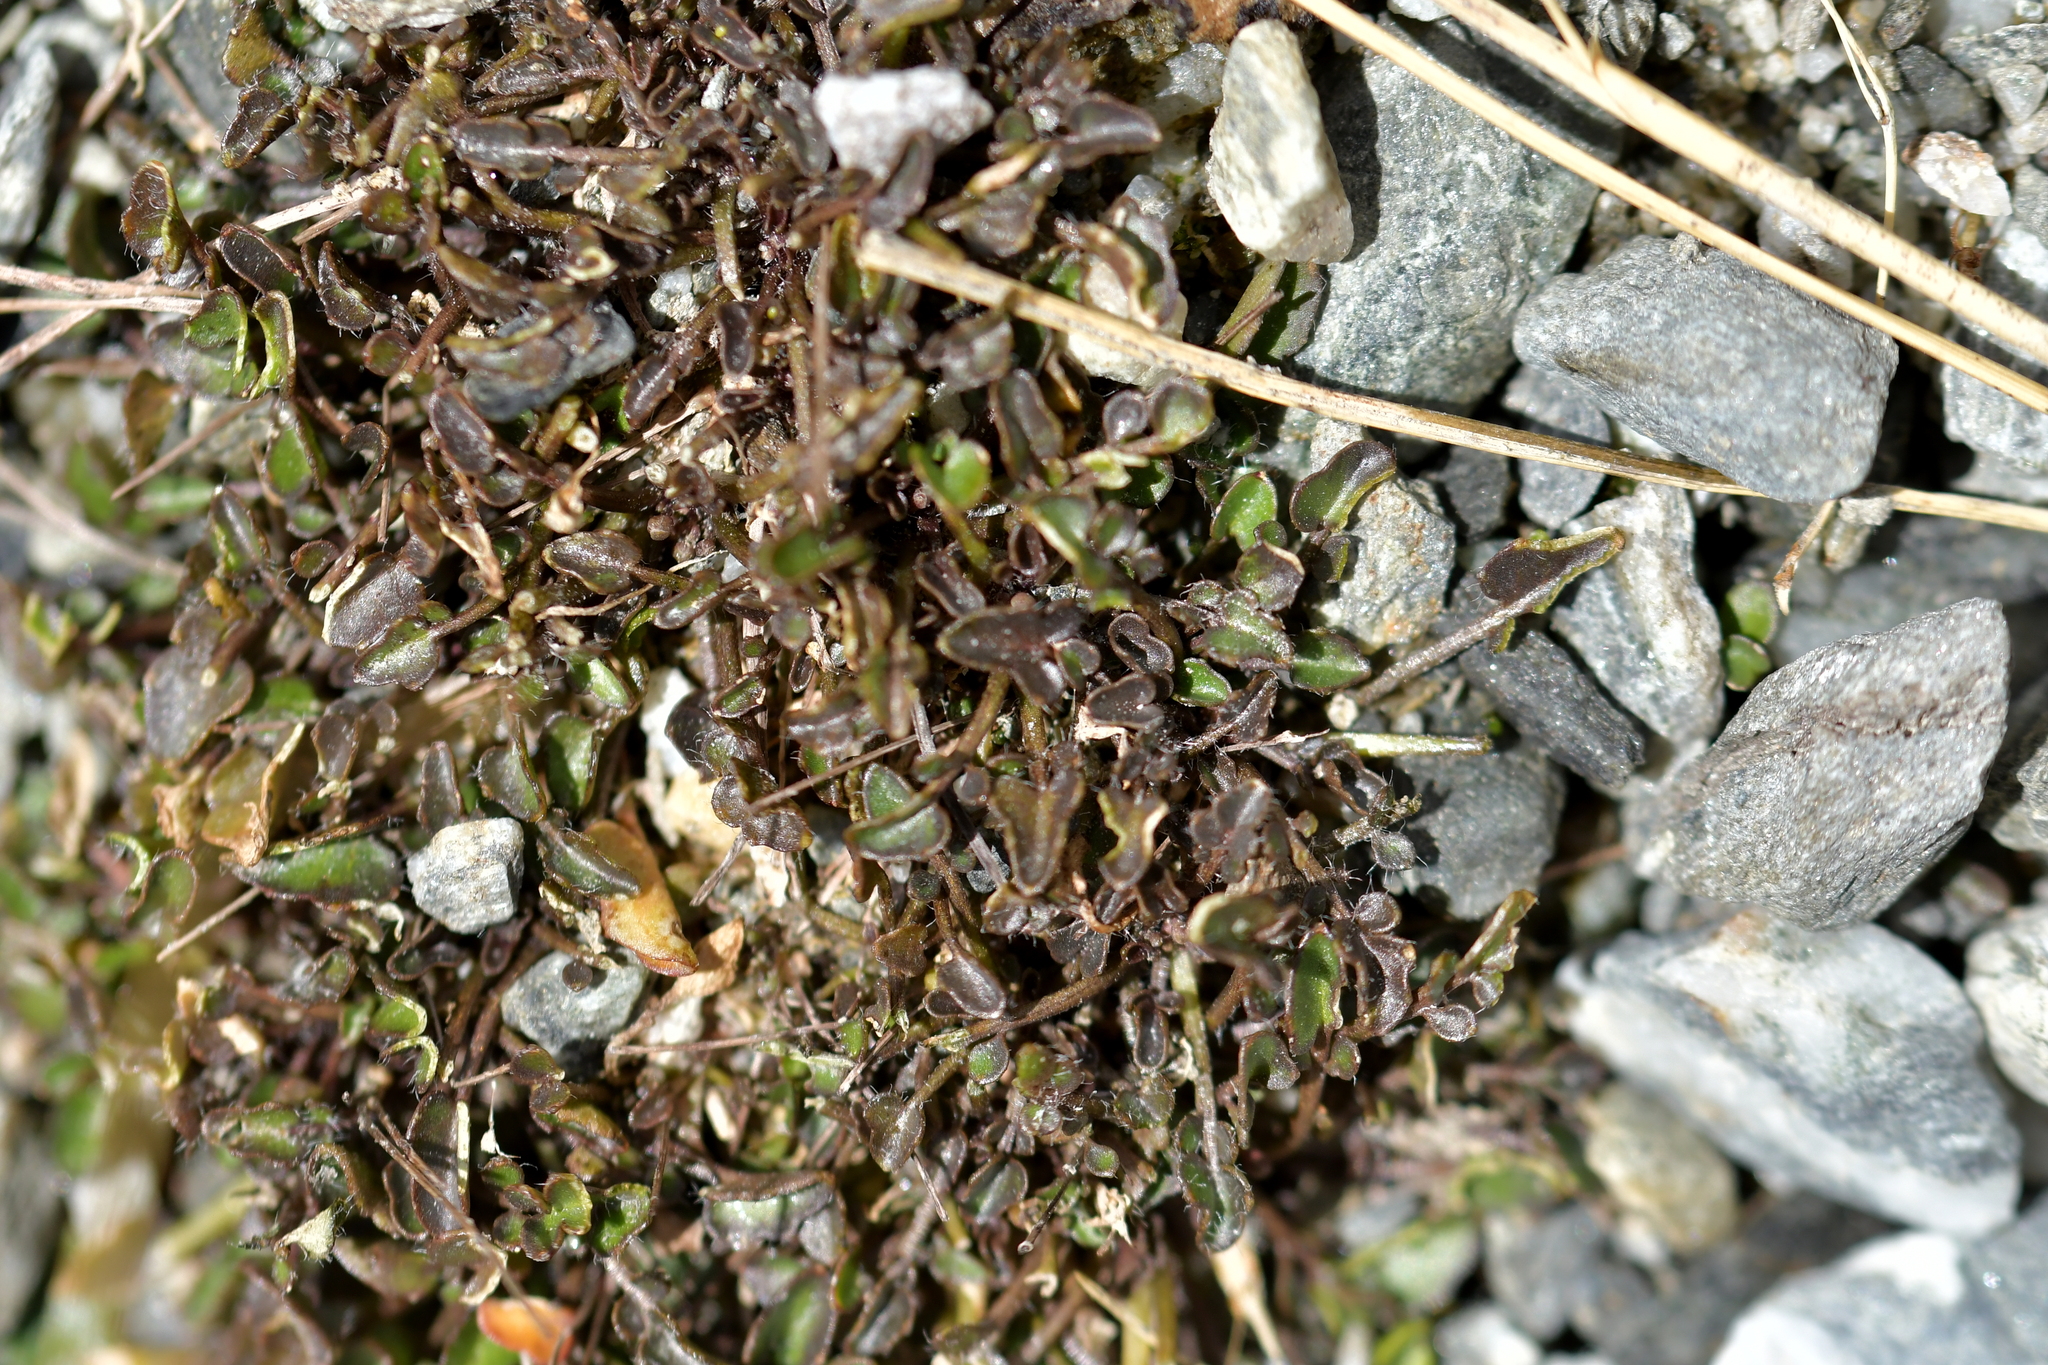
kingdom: Plantae
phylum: Tracheophyta
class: Magnoliopsida
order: Brassicales
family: Brassicaceae
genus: Cardamine
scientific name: Cardamine exigua
